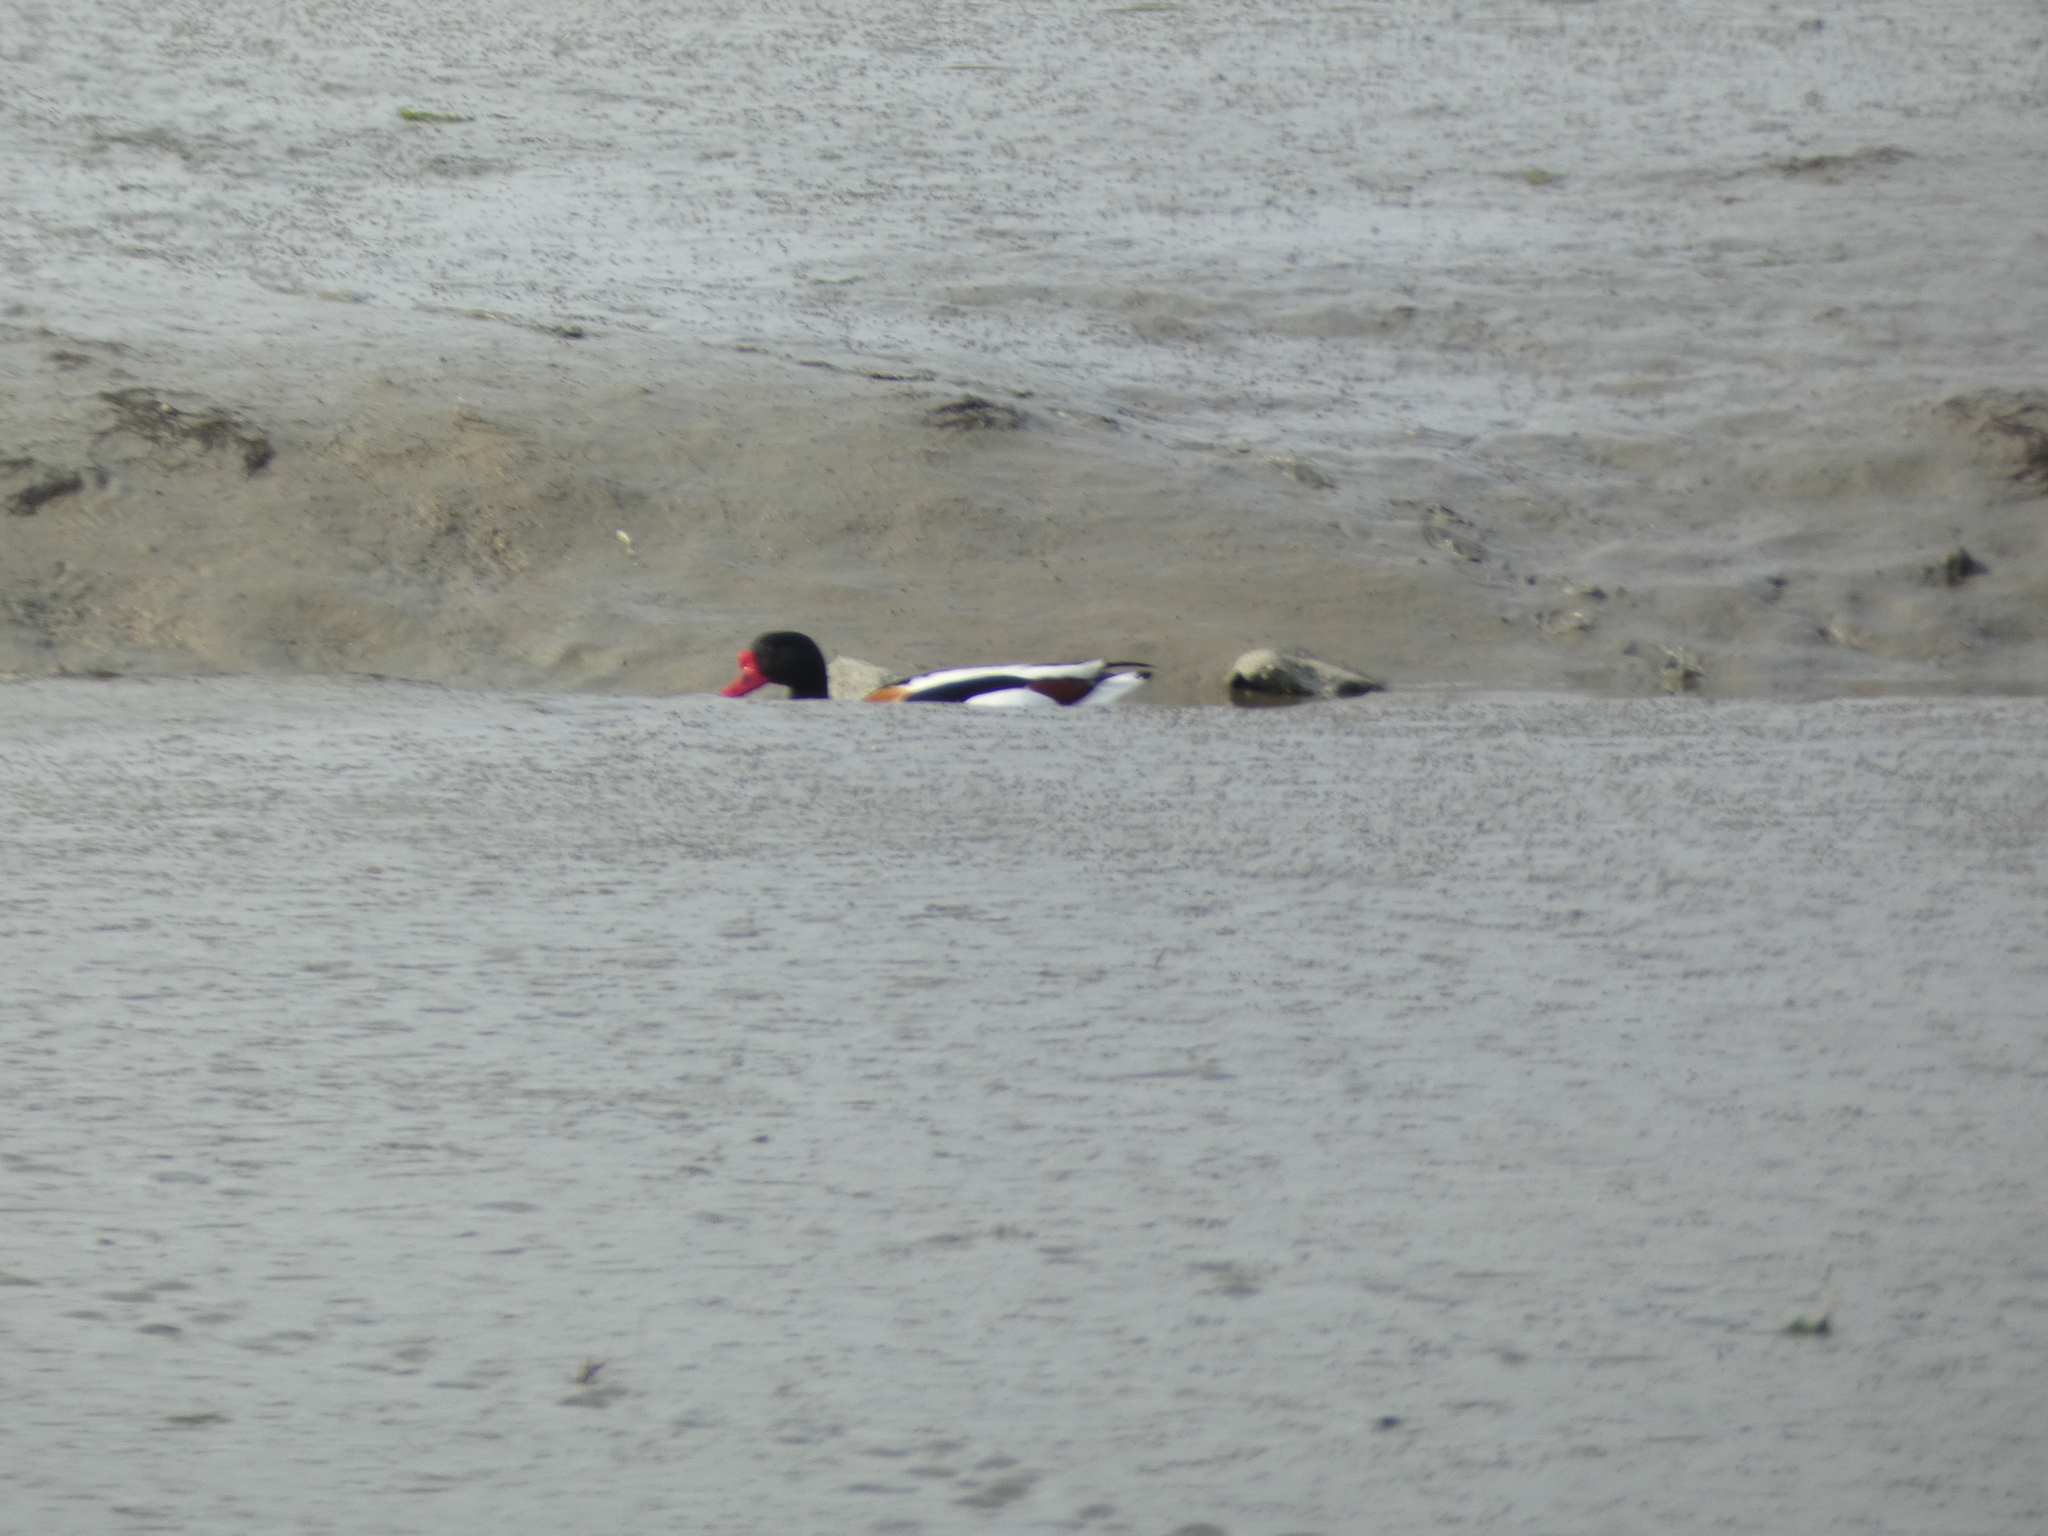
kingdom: Animalia
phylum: Chordata
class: Aves
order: Anseriformes
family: Anatidae
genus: Tadorna
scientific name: Tadorna tadorna
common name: Common shelduck
